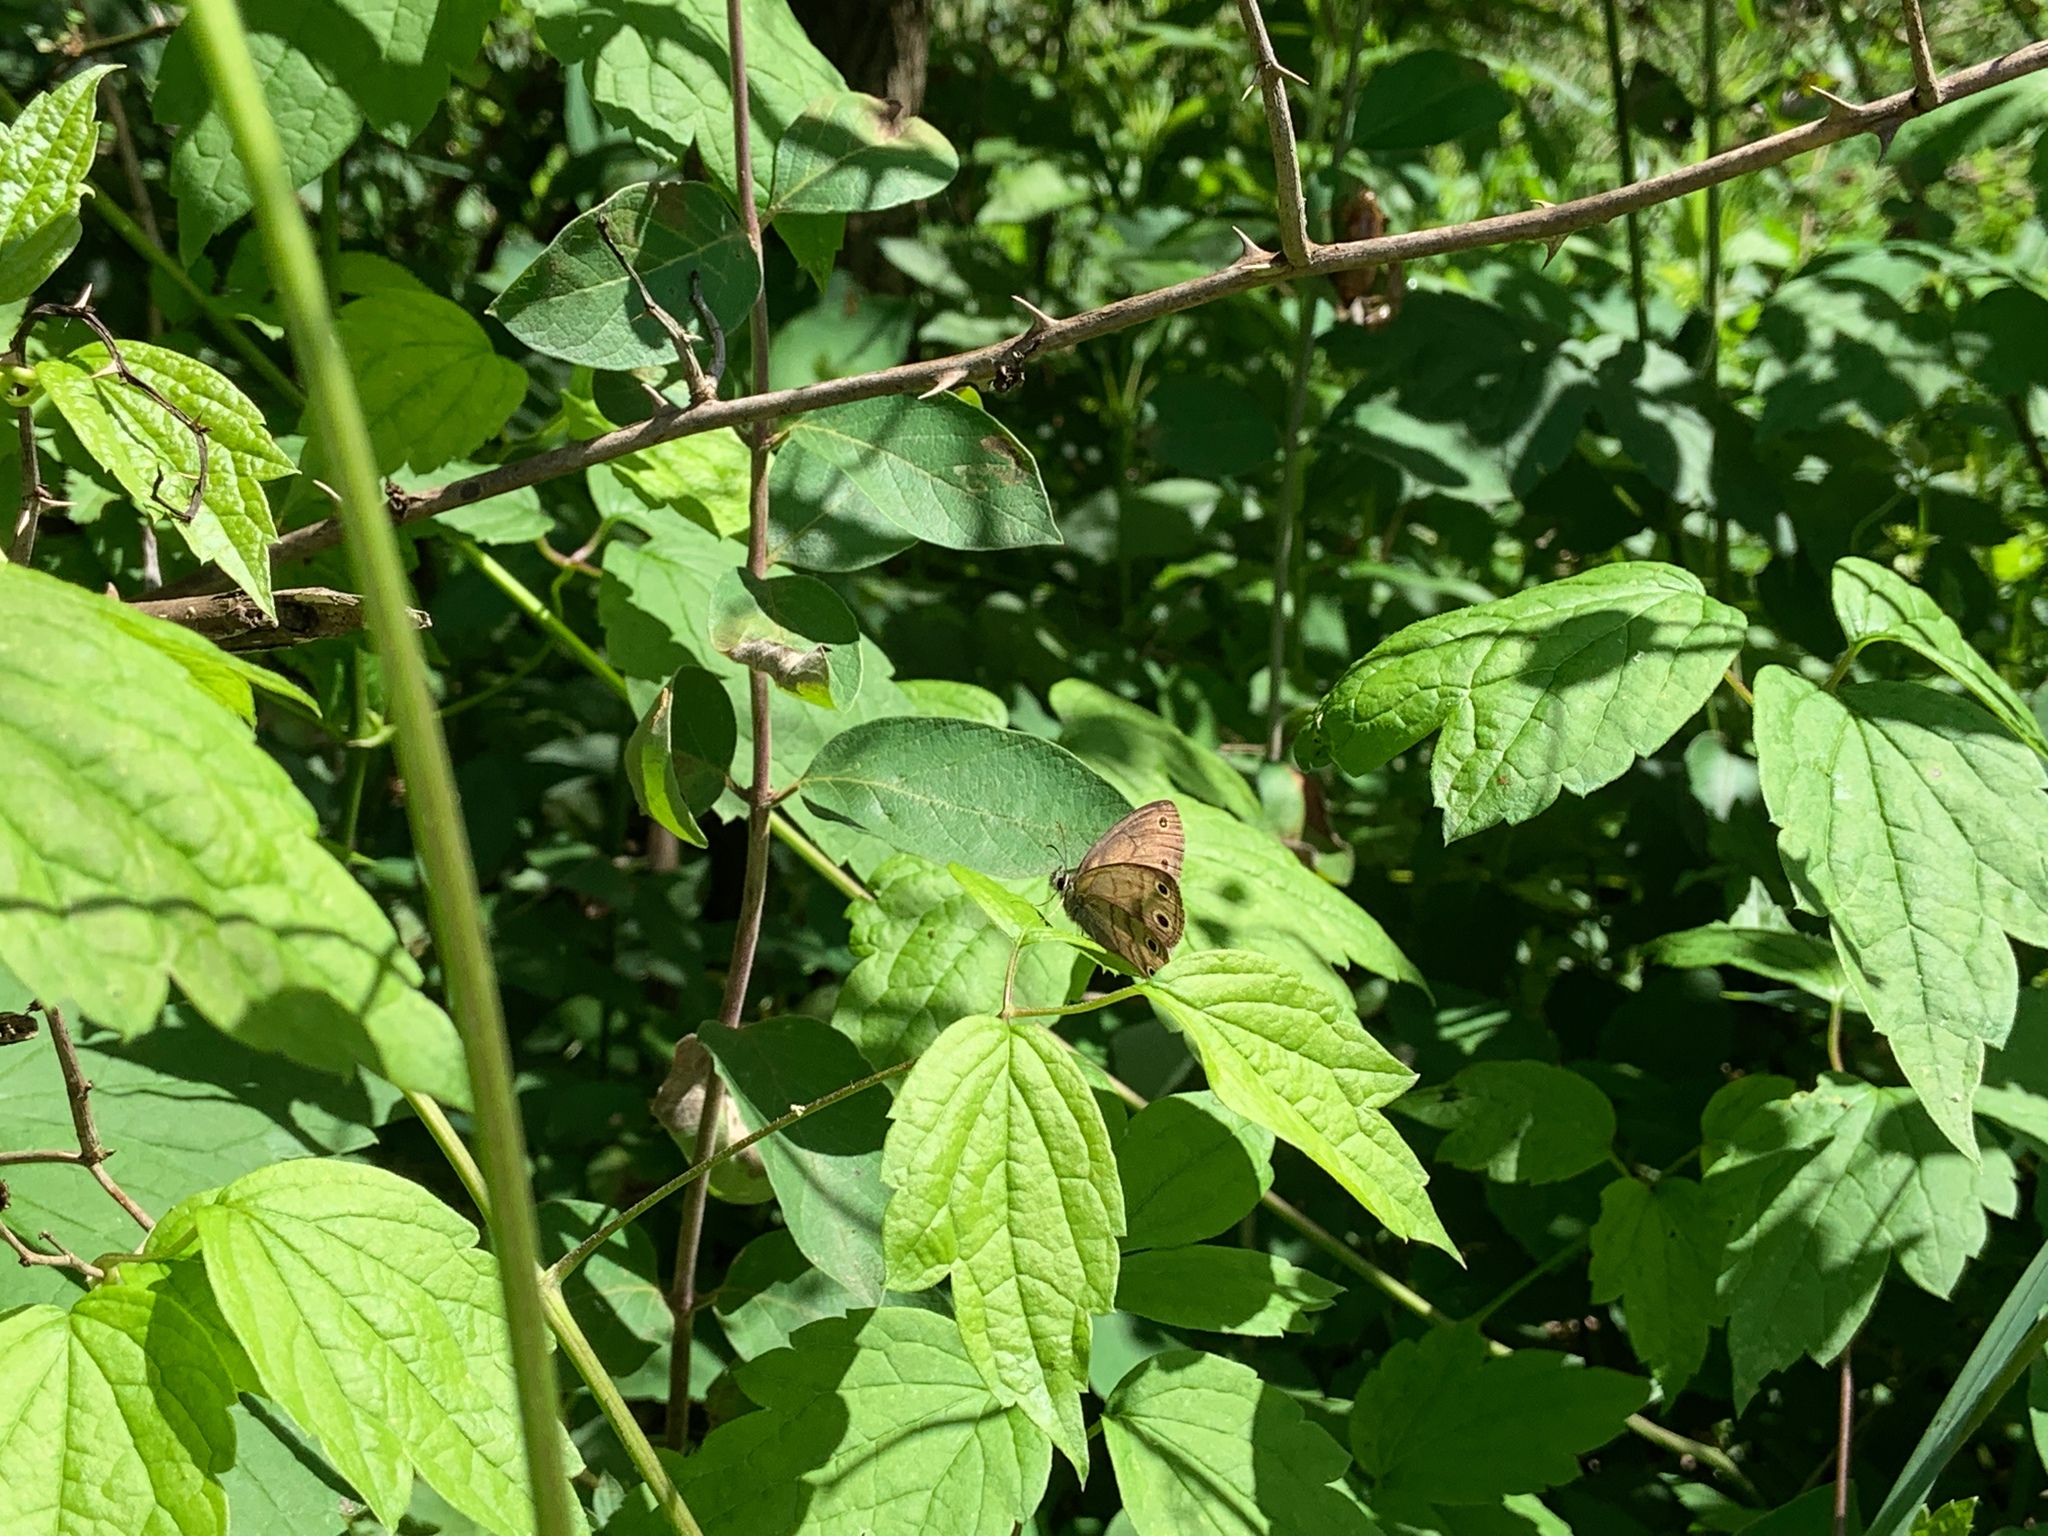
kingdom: Animalia
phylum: Arthropoda
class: Insecta
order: Lepidoptera
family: Nymphalidae
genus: Euptychia
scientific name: Euptychia cymela
